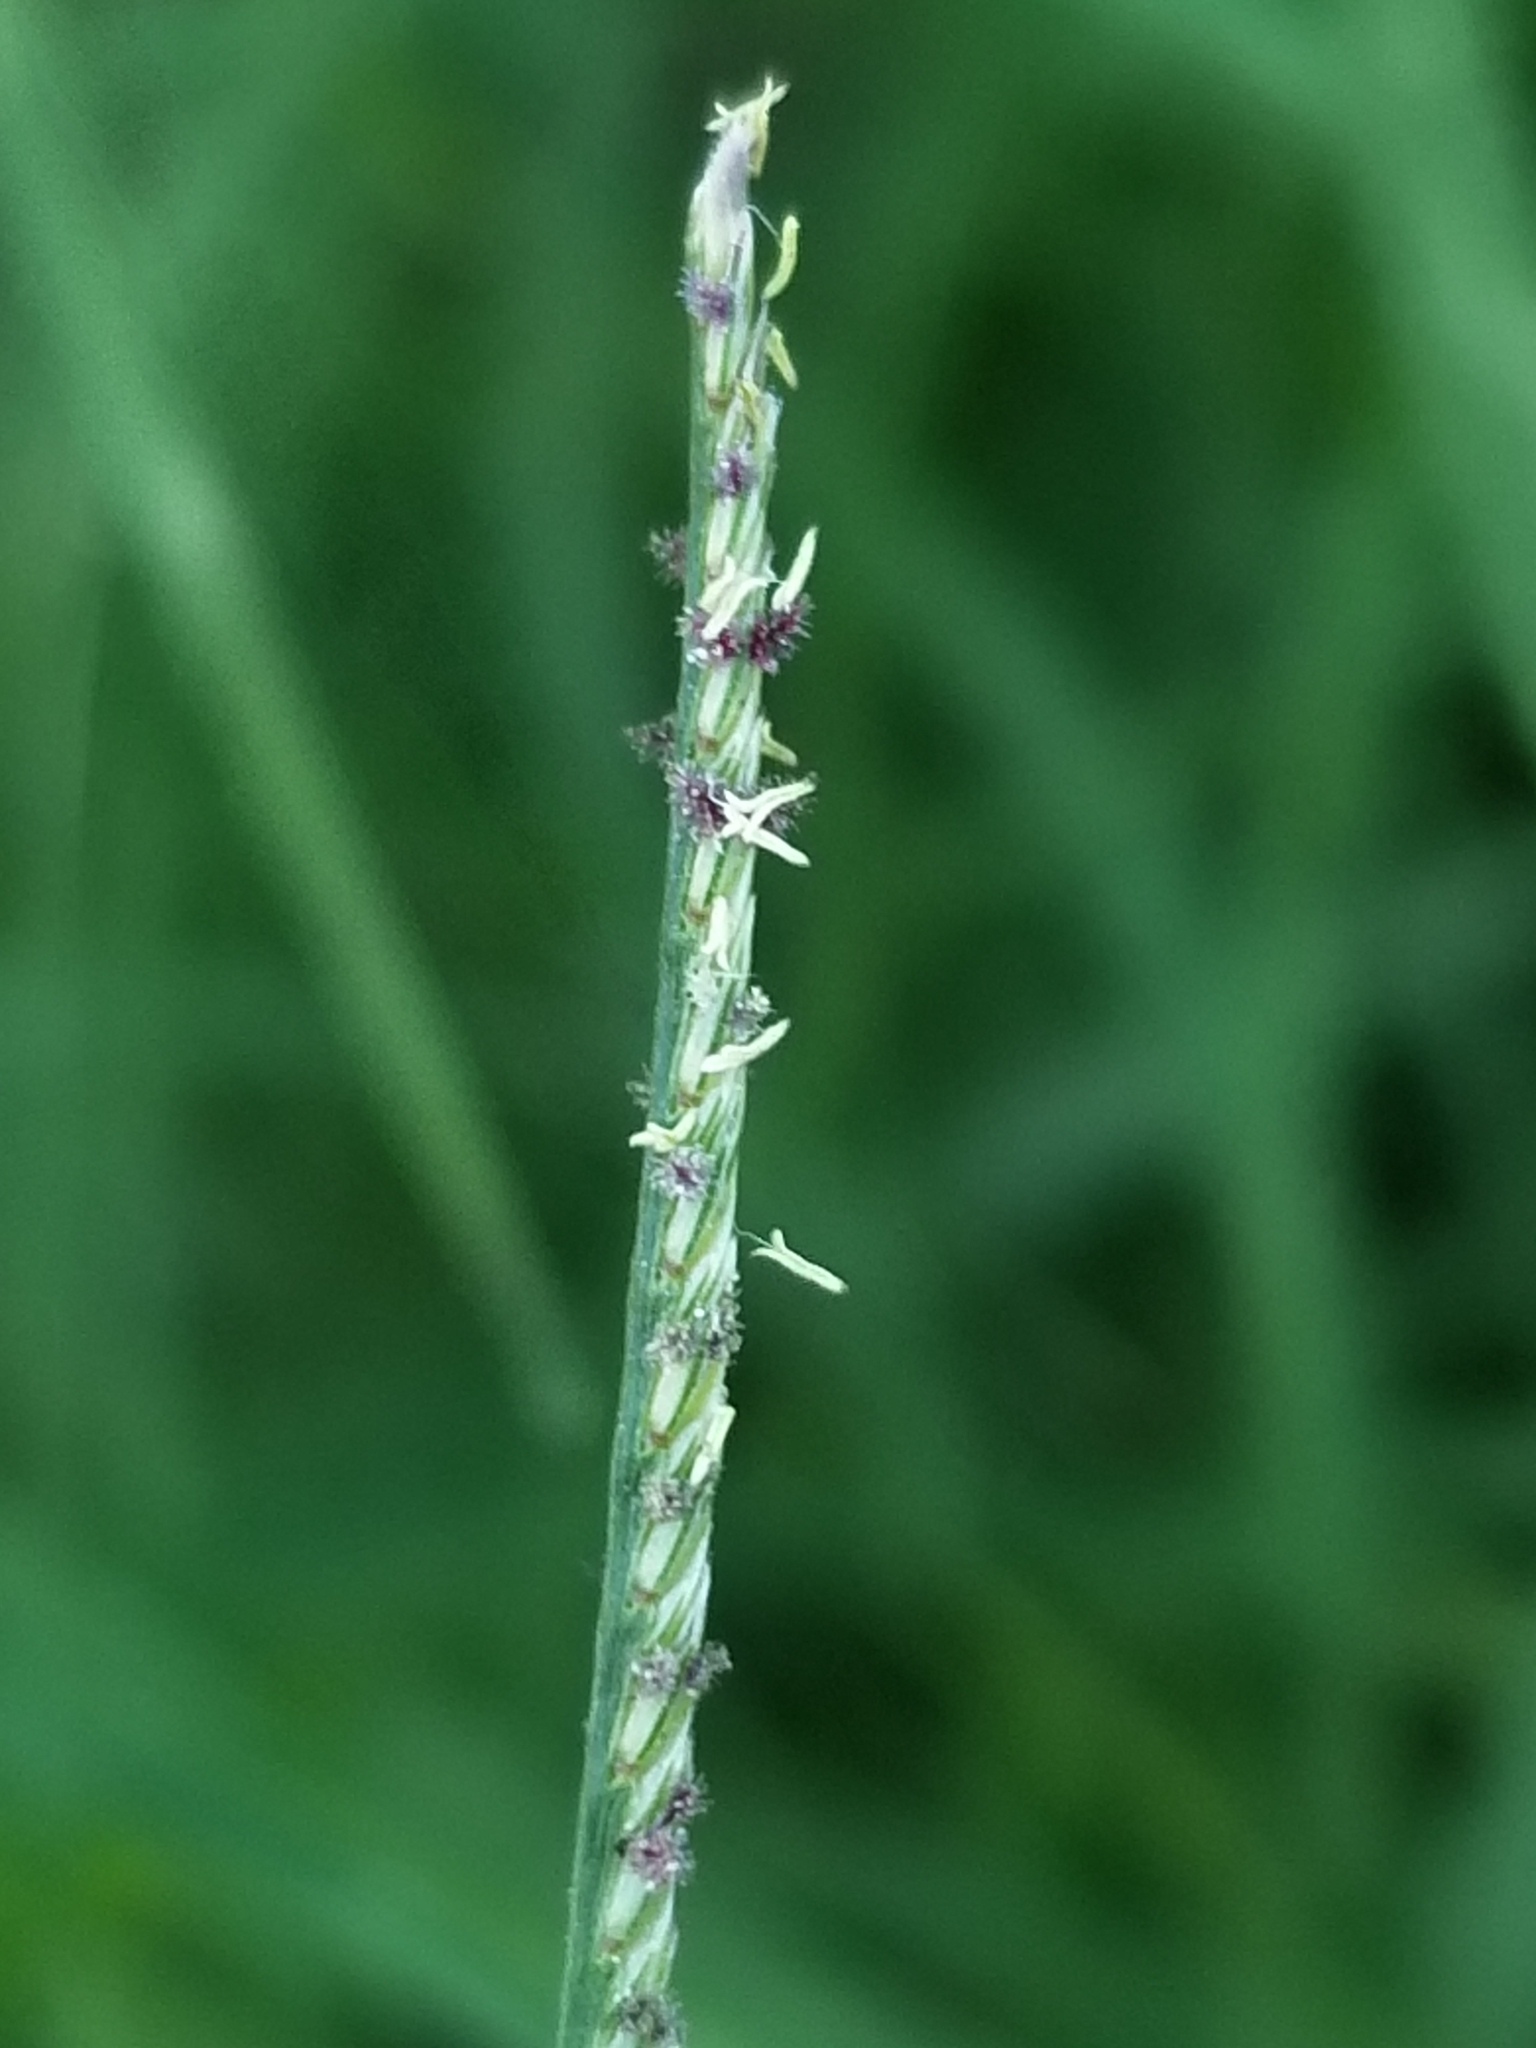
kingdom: Plantae
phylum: Tracheophyta
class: Liliopsida
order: Poales
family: Poaceae
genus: Cynodon
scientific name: Cynodon dactylon
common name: Bermuda grass
